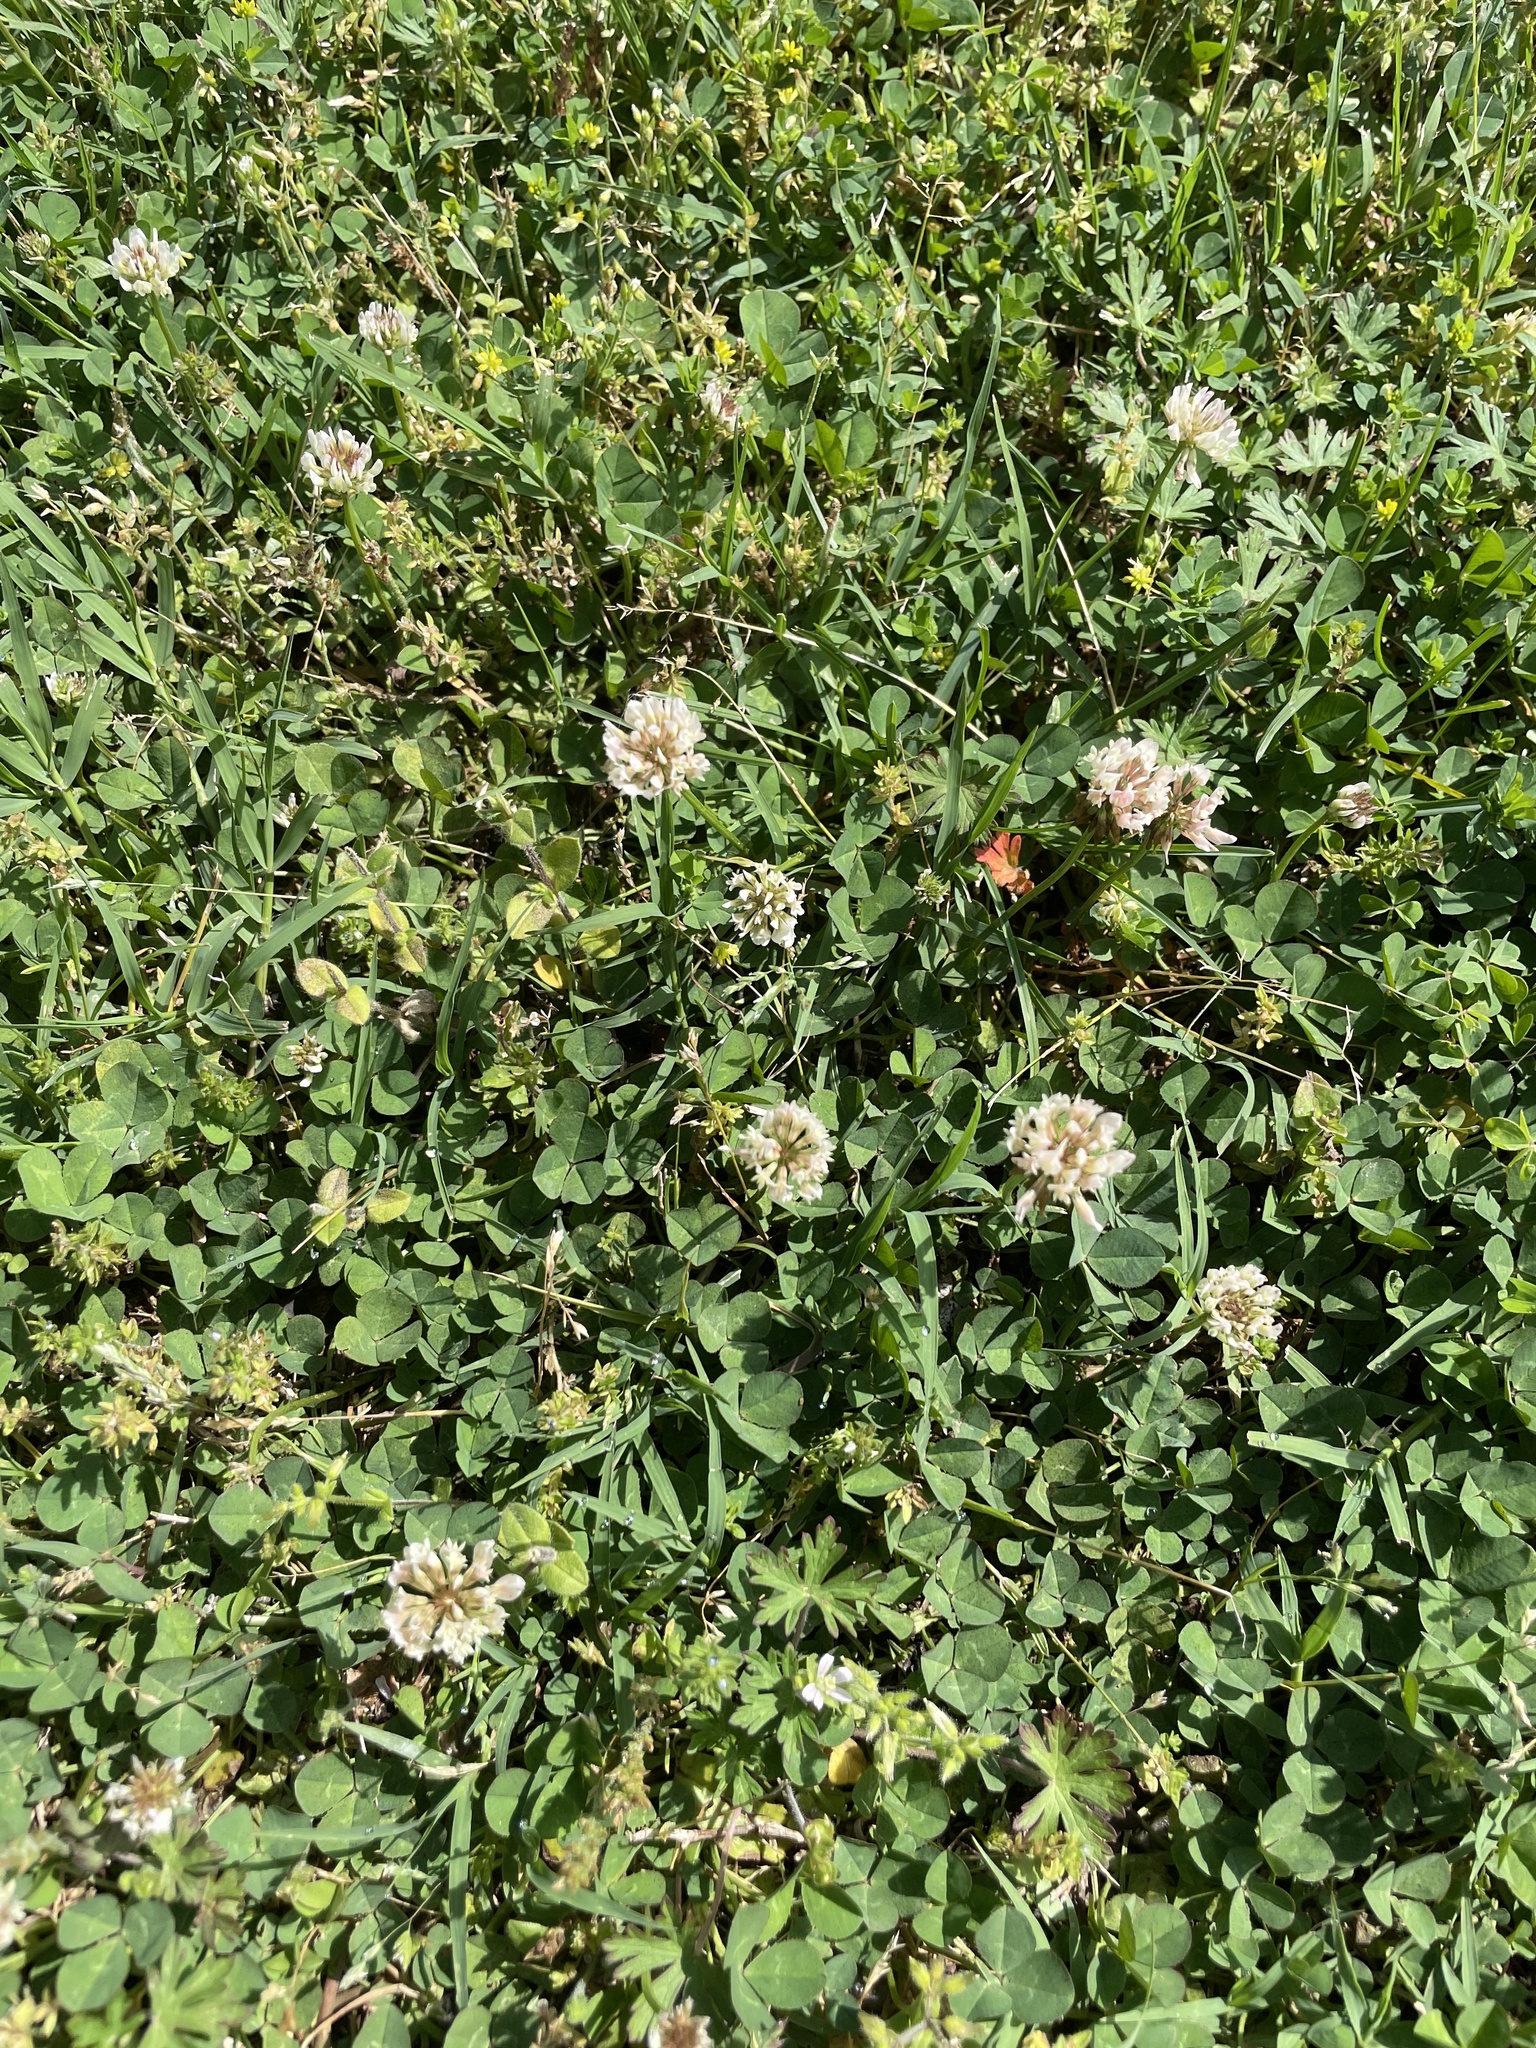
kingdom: Plantae
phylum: Tracheophyta
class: Magnoliopsida
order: Fabales
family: Fabaceae
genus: Trifolium
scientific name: Trifolium repens
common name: White clover
